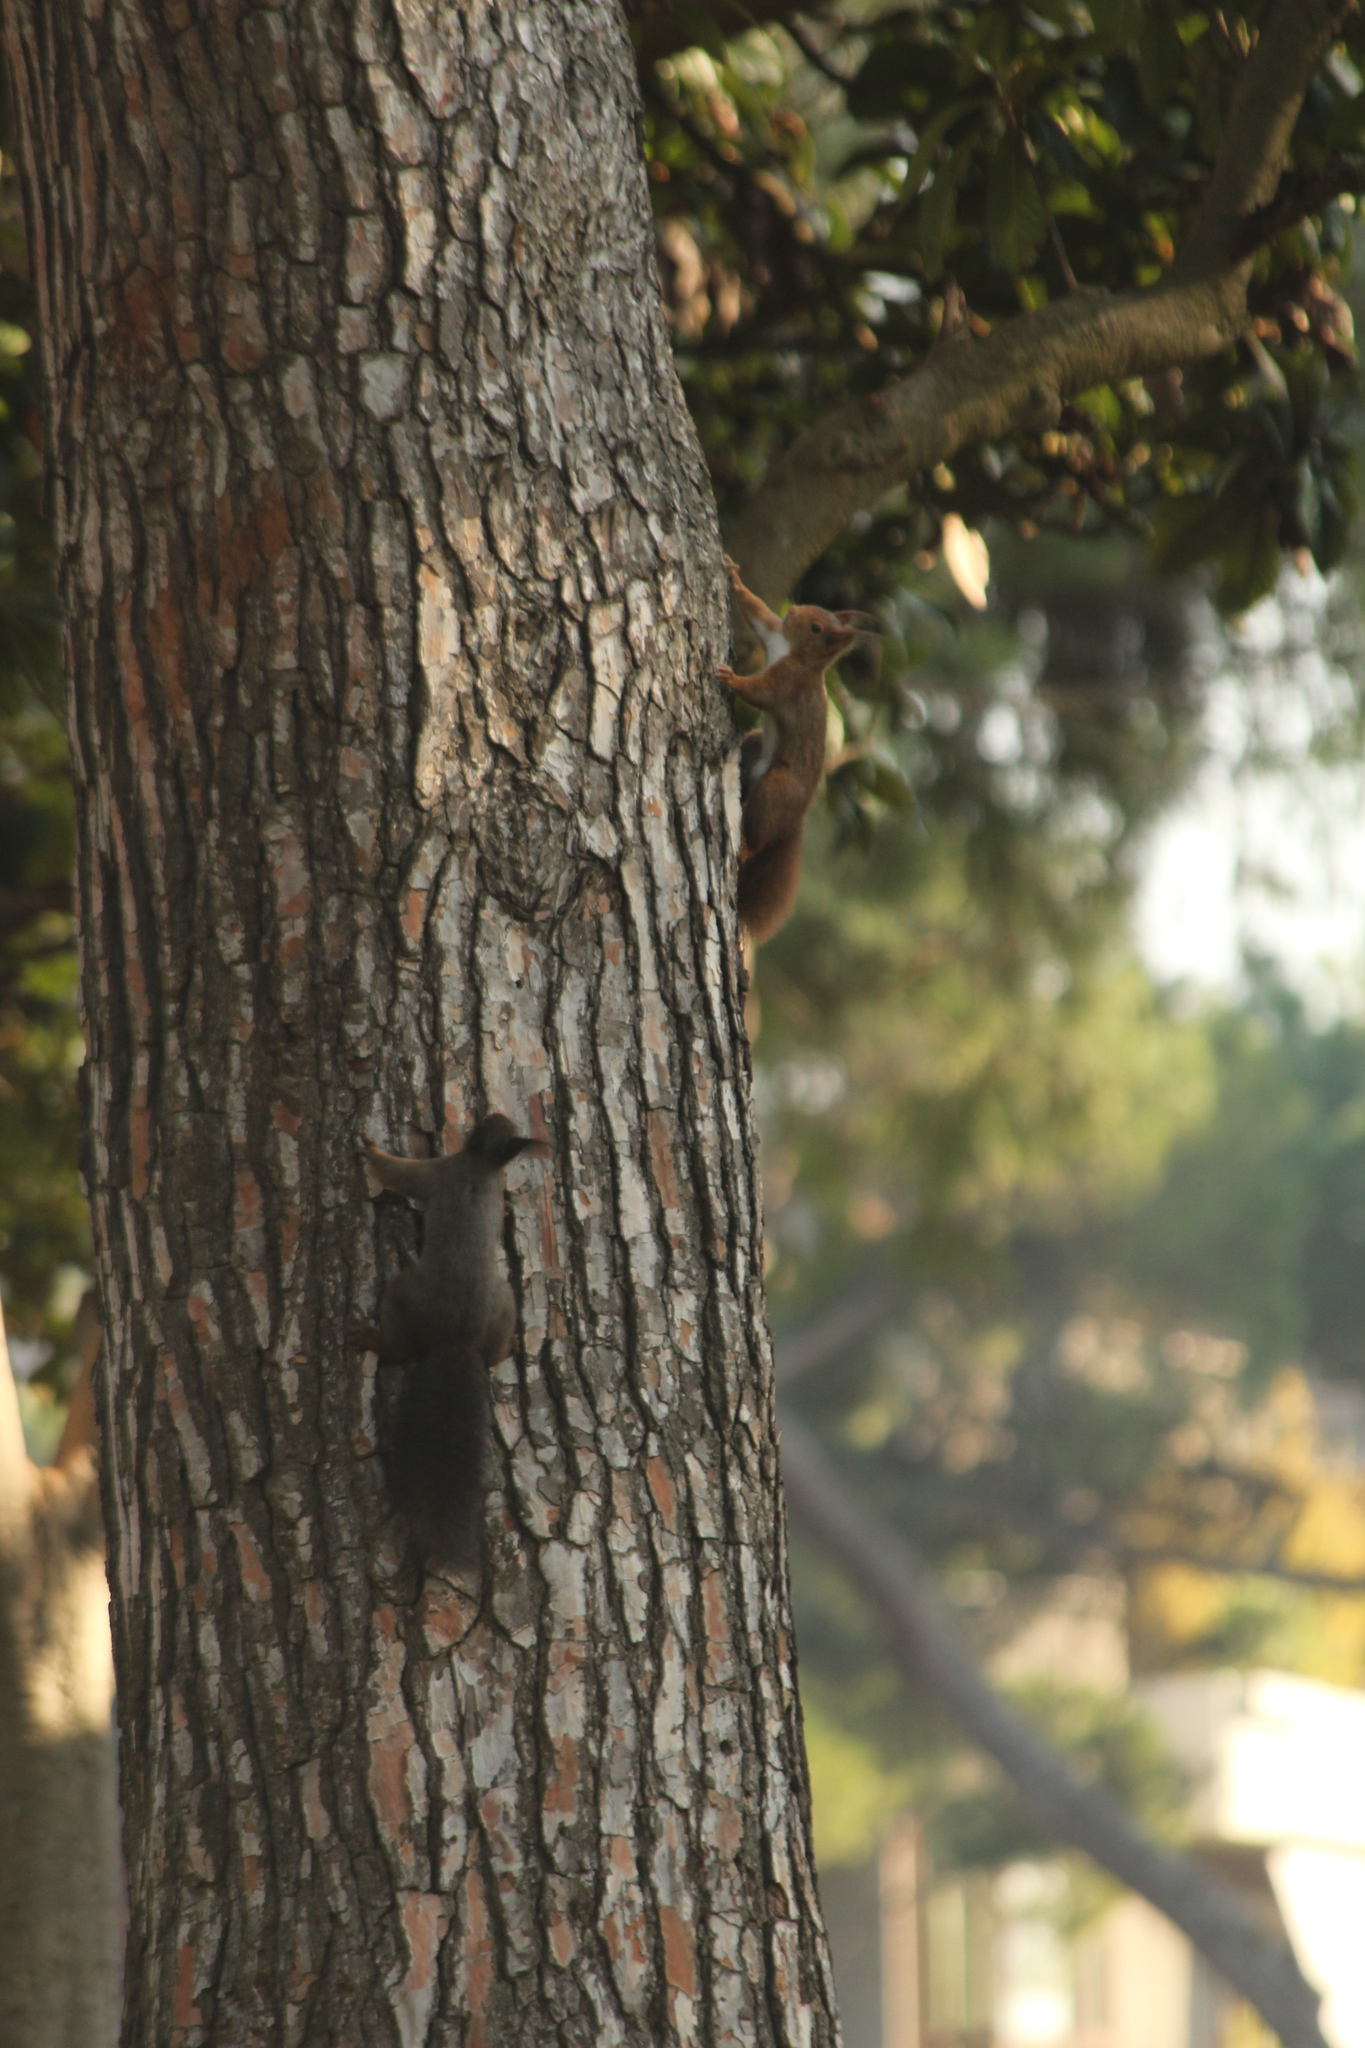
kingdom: Animalia
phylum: Chordata
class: Mammalia
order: Rodentia
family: Sciuridae
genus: Sciurus
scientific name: Sciurus vulgaris
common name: Eurasian red squirrel
